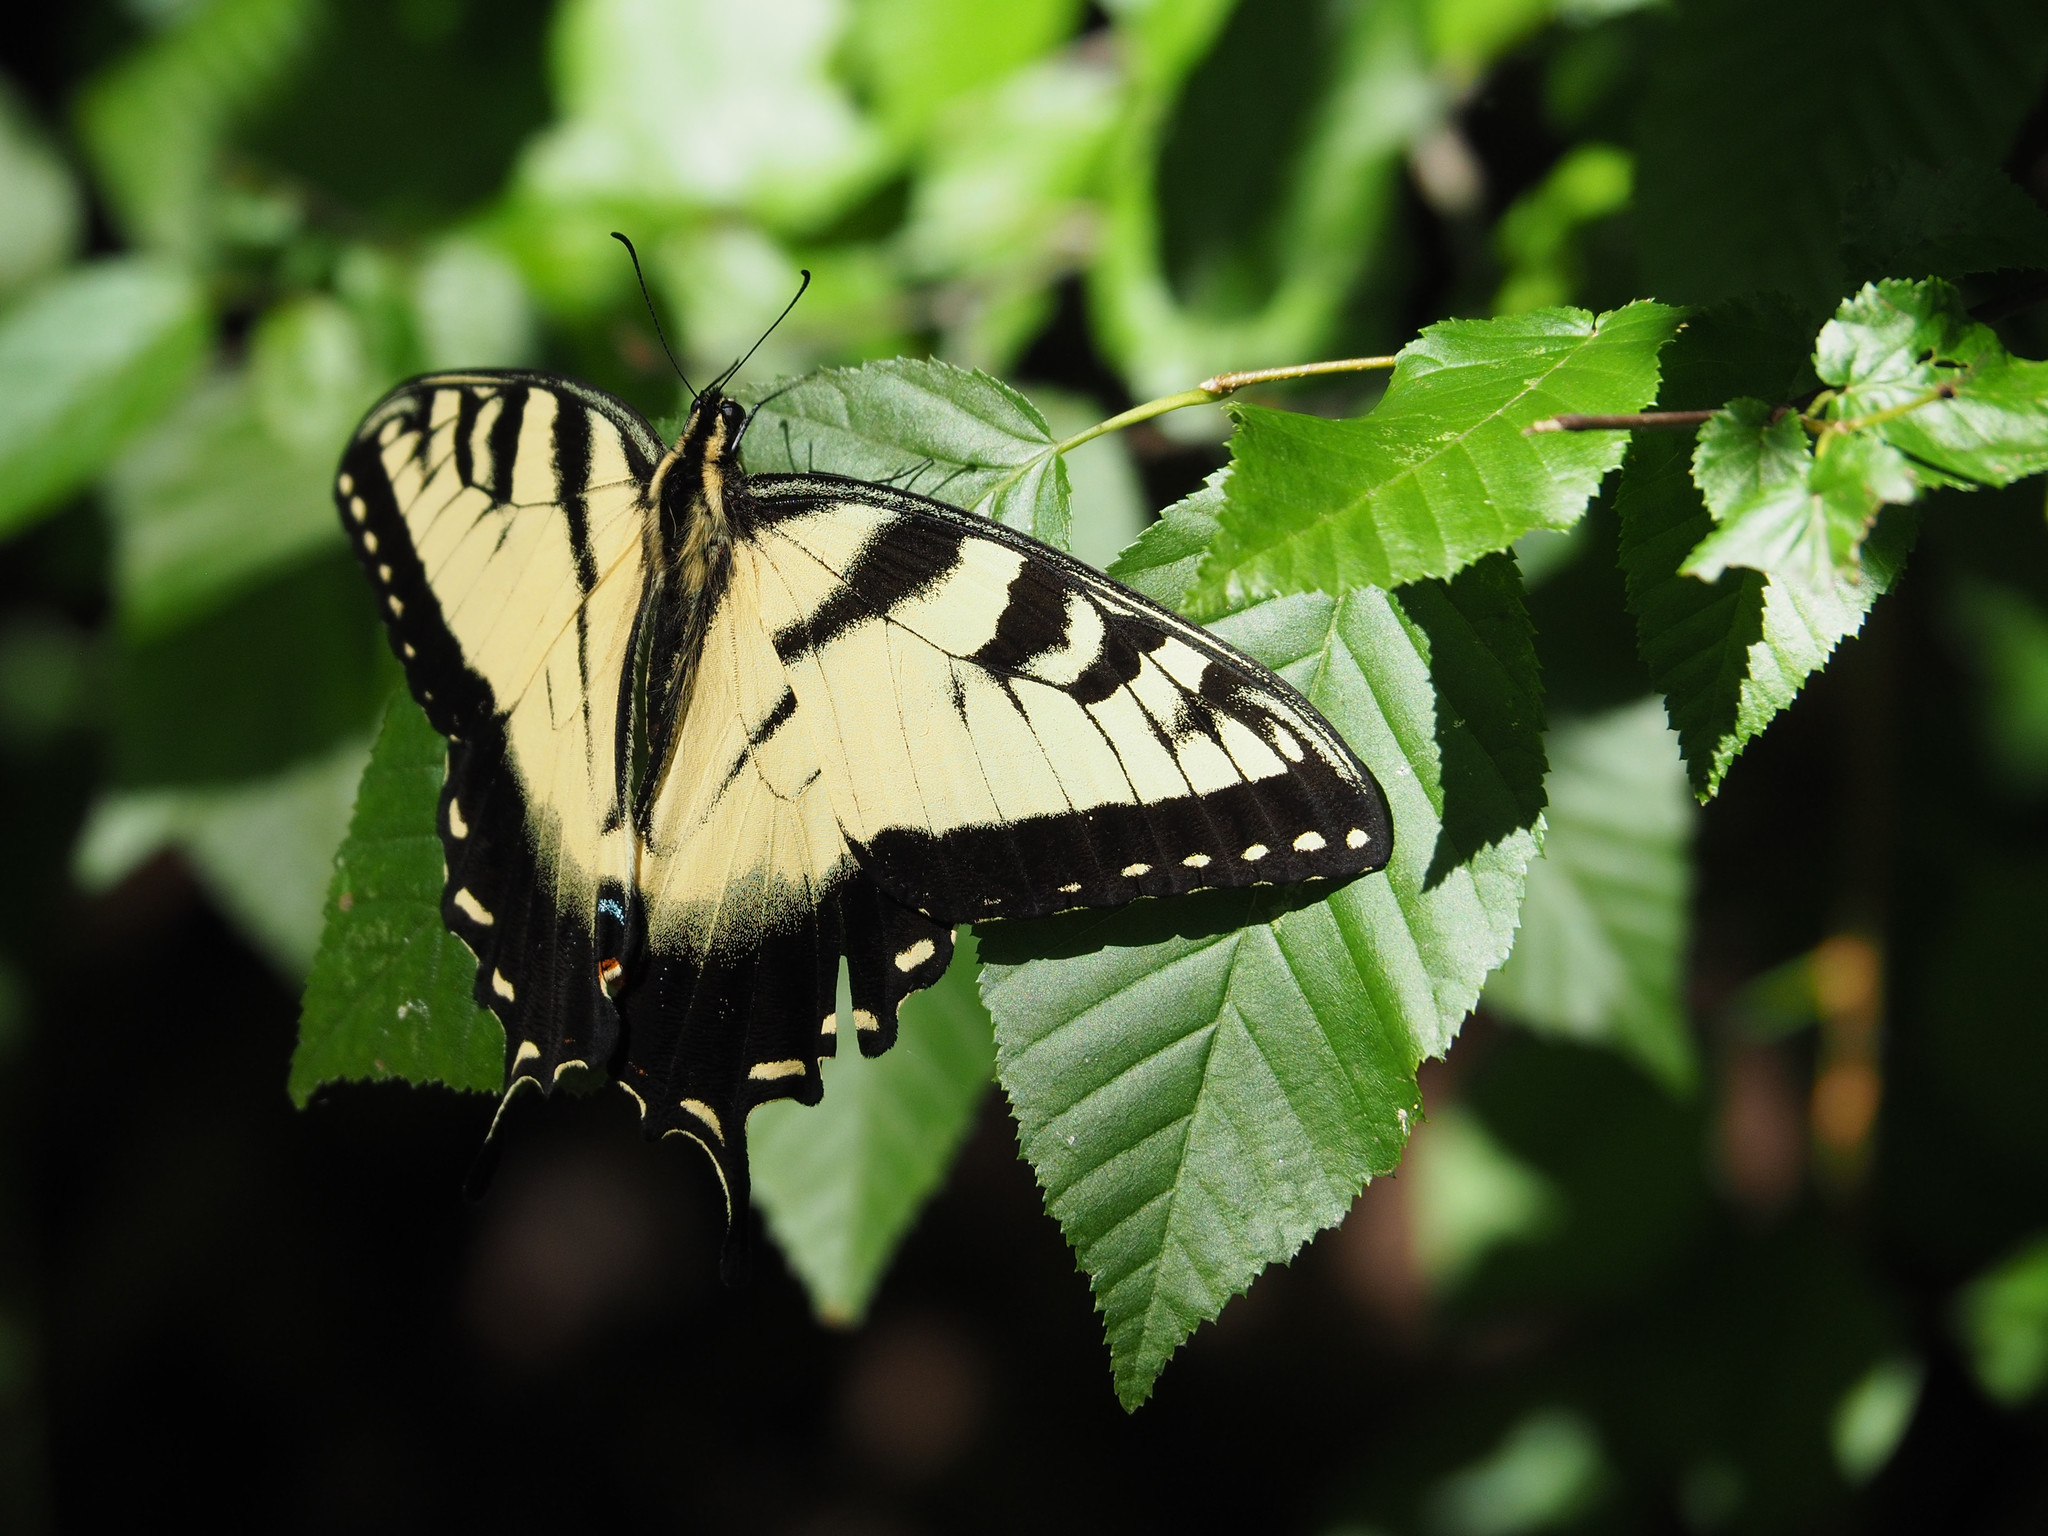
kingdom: Animalia
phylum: Arthropoda
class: Insecta
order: Lepidoptera
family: Papilionidae
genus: Papilio
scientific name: Papilio glaucus
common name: Tiger swallowtail
